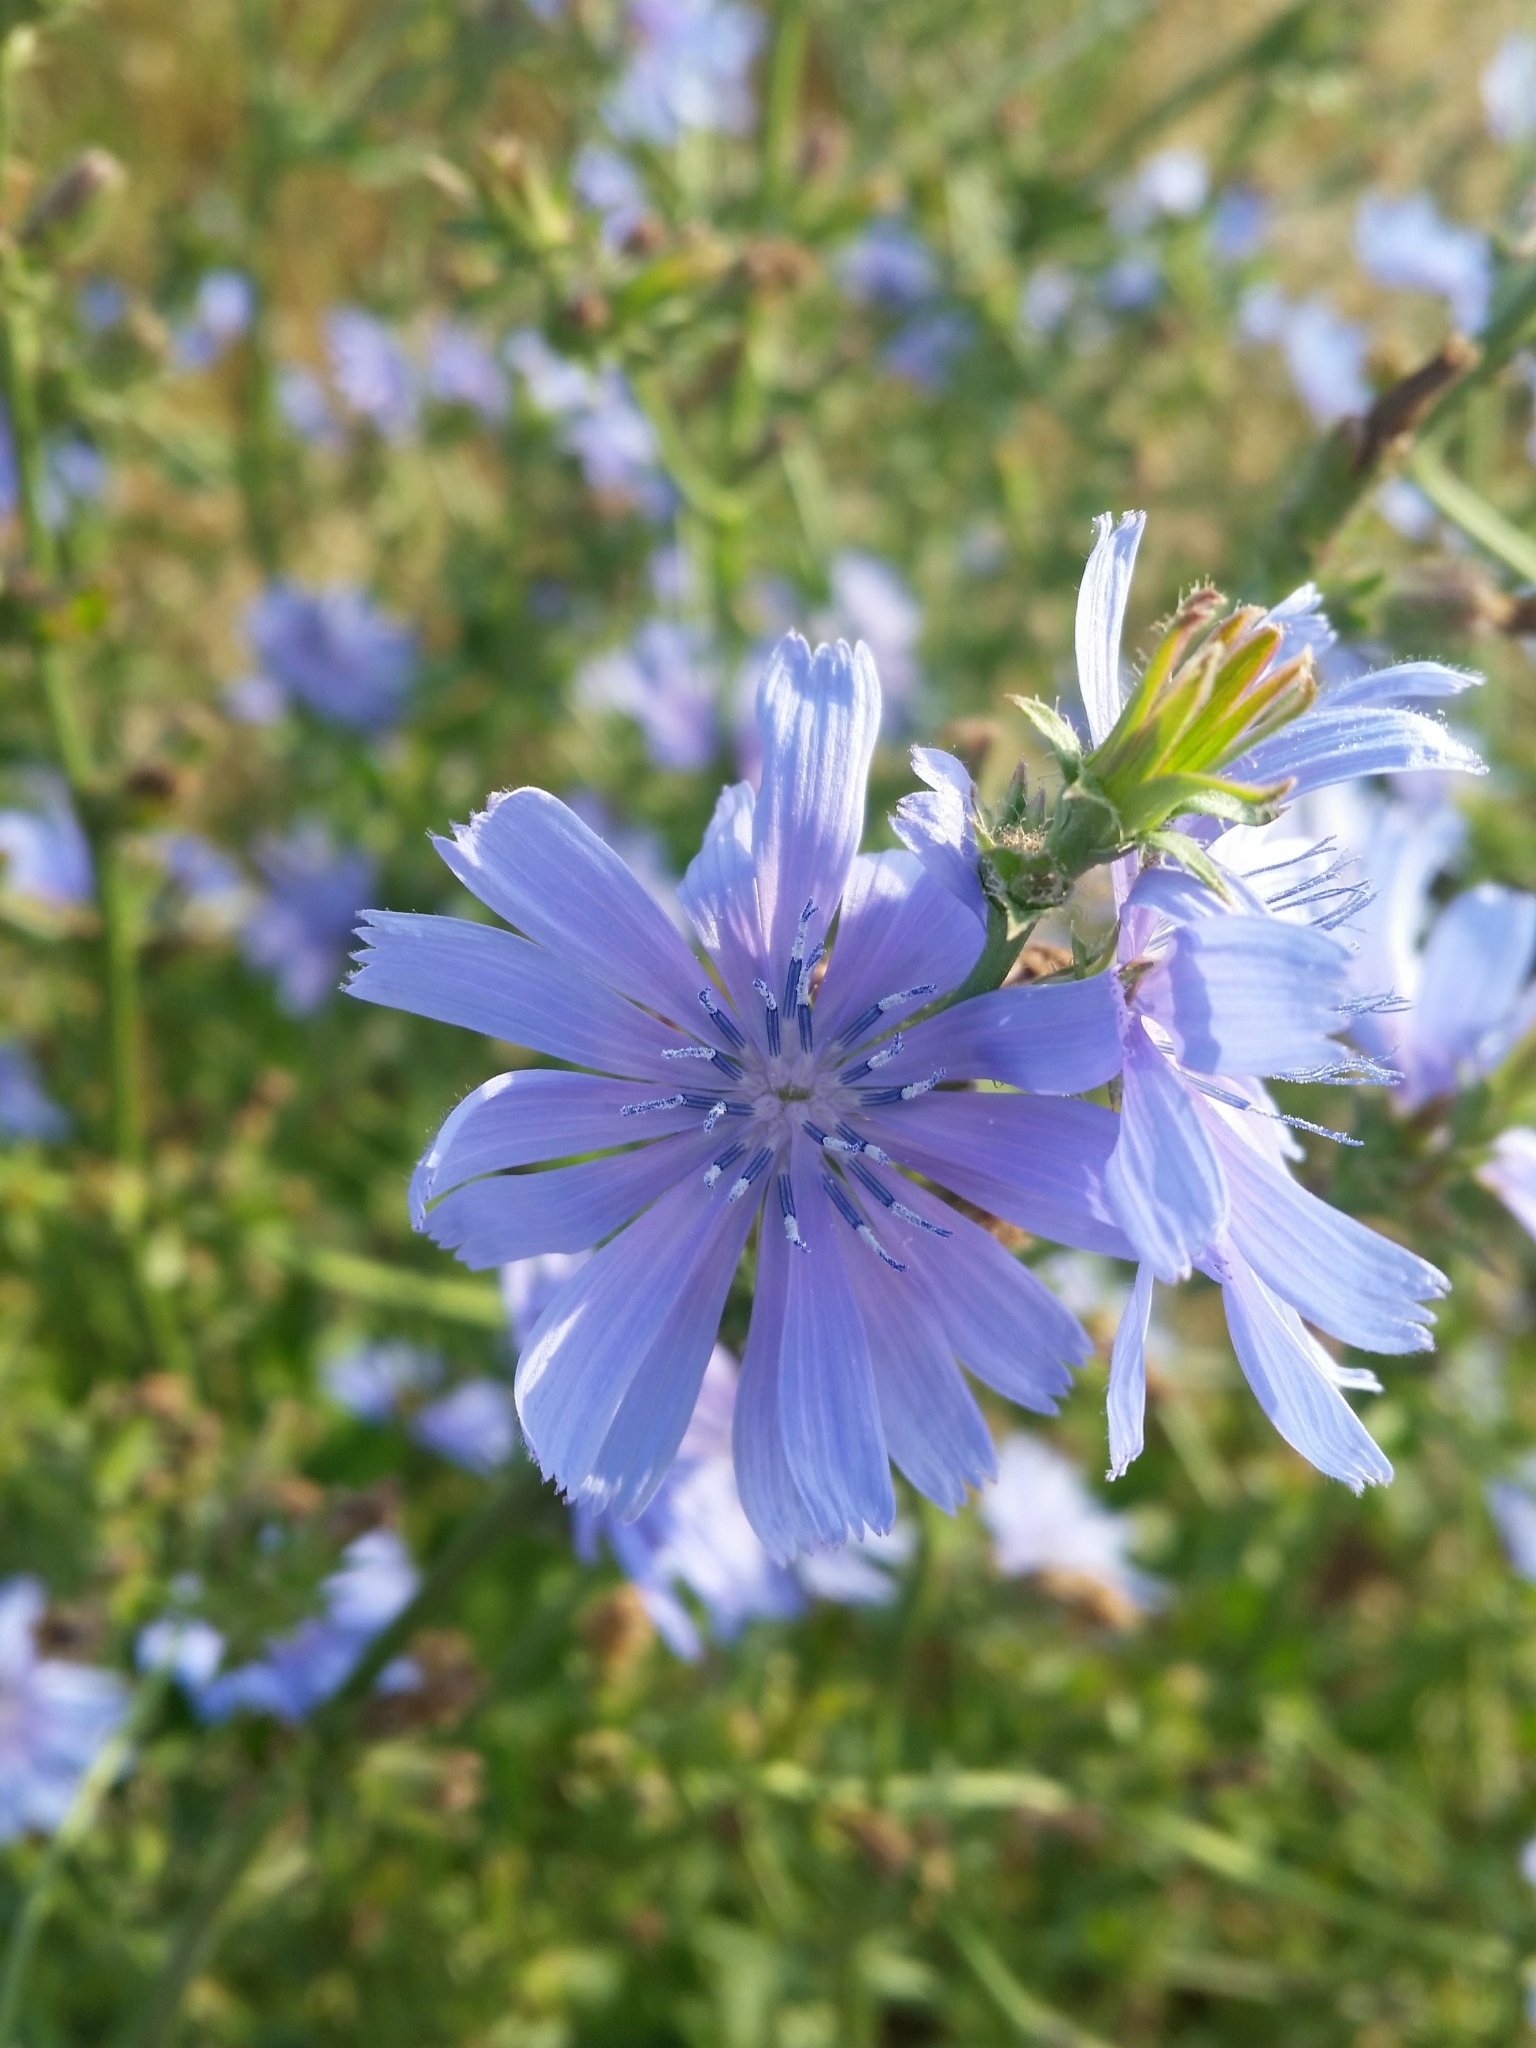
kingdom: Plantae
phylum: Tracheophyta
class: Magnoliopsida
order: Asterales
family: Asteraceae
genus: Cichorium
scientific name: Cichorium intybus
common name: Chicory
